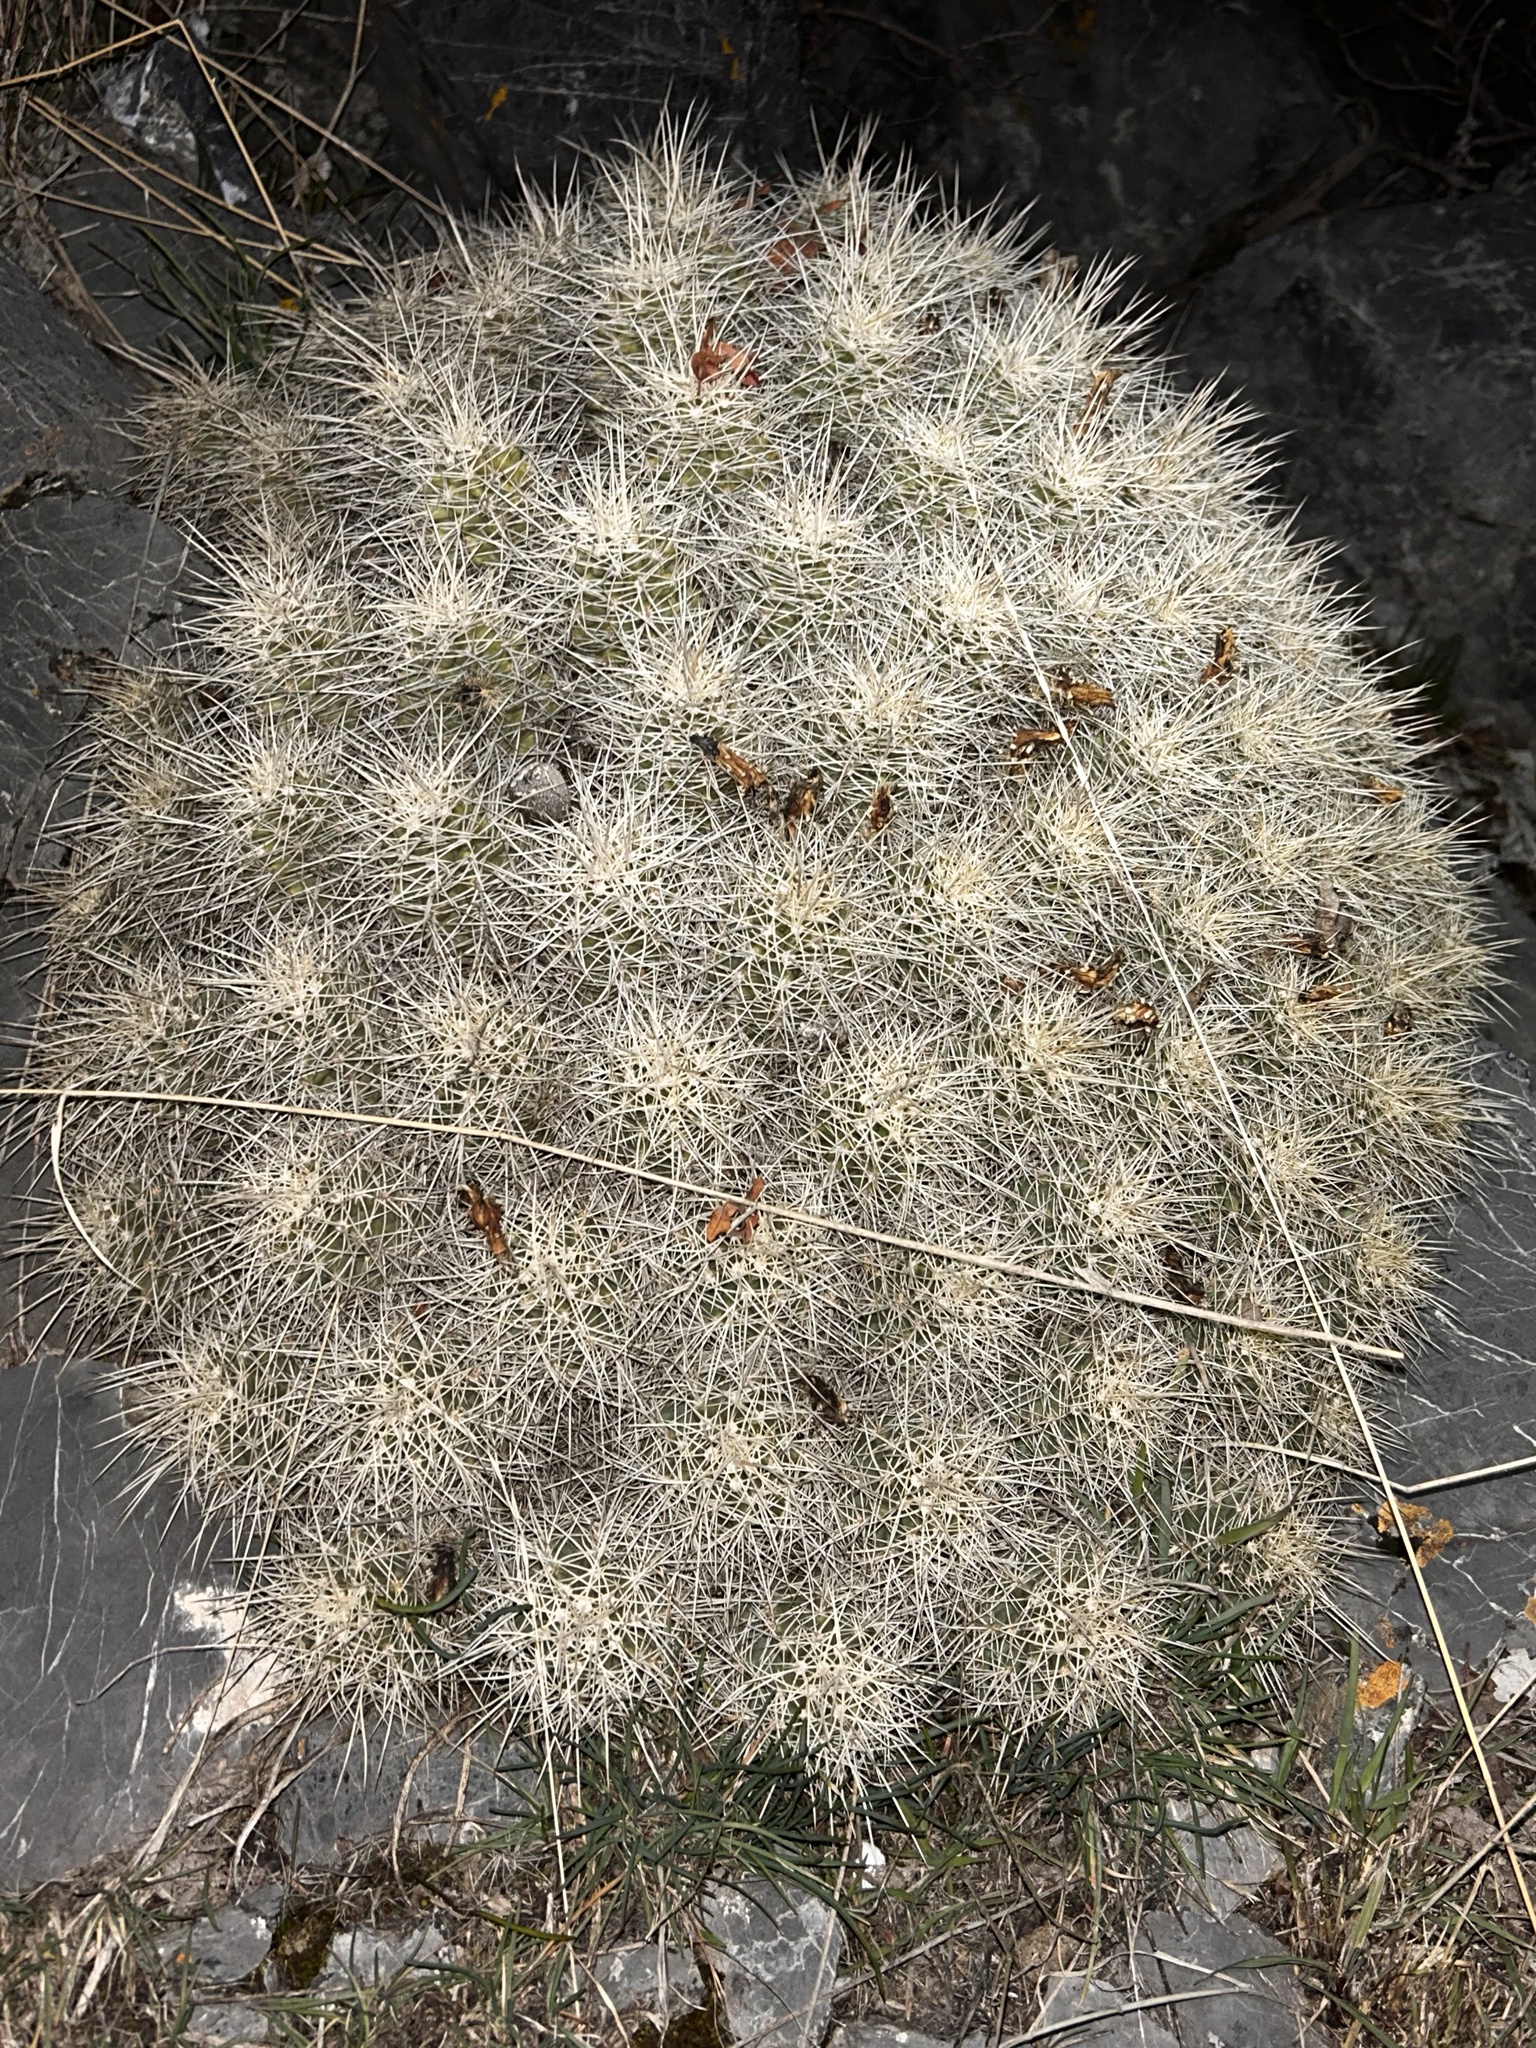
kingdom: Plantae
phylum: Tracheophyta
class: Magnoliopsida
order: Caryophyllales
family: Cactaceae
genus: Echinocereus
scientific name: Echinocereus triglochidiatus
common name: Claretcup hedgehog
